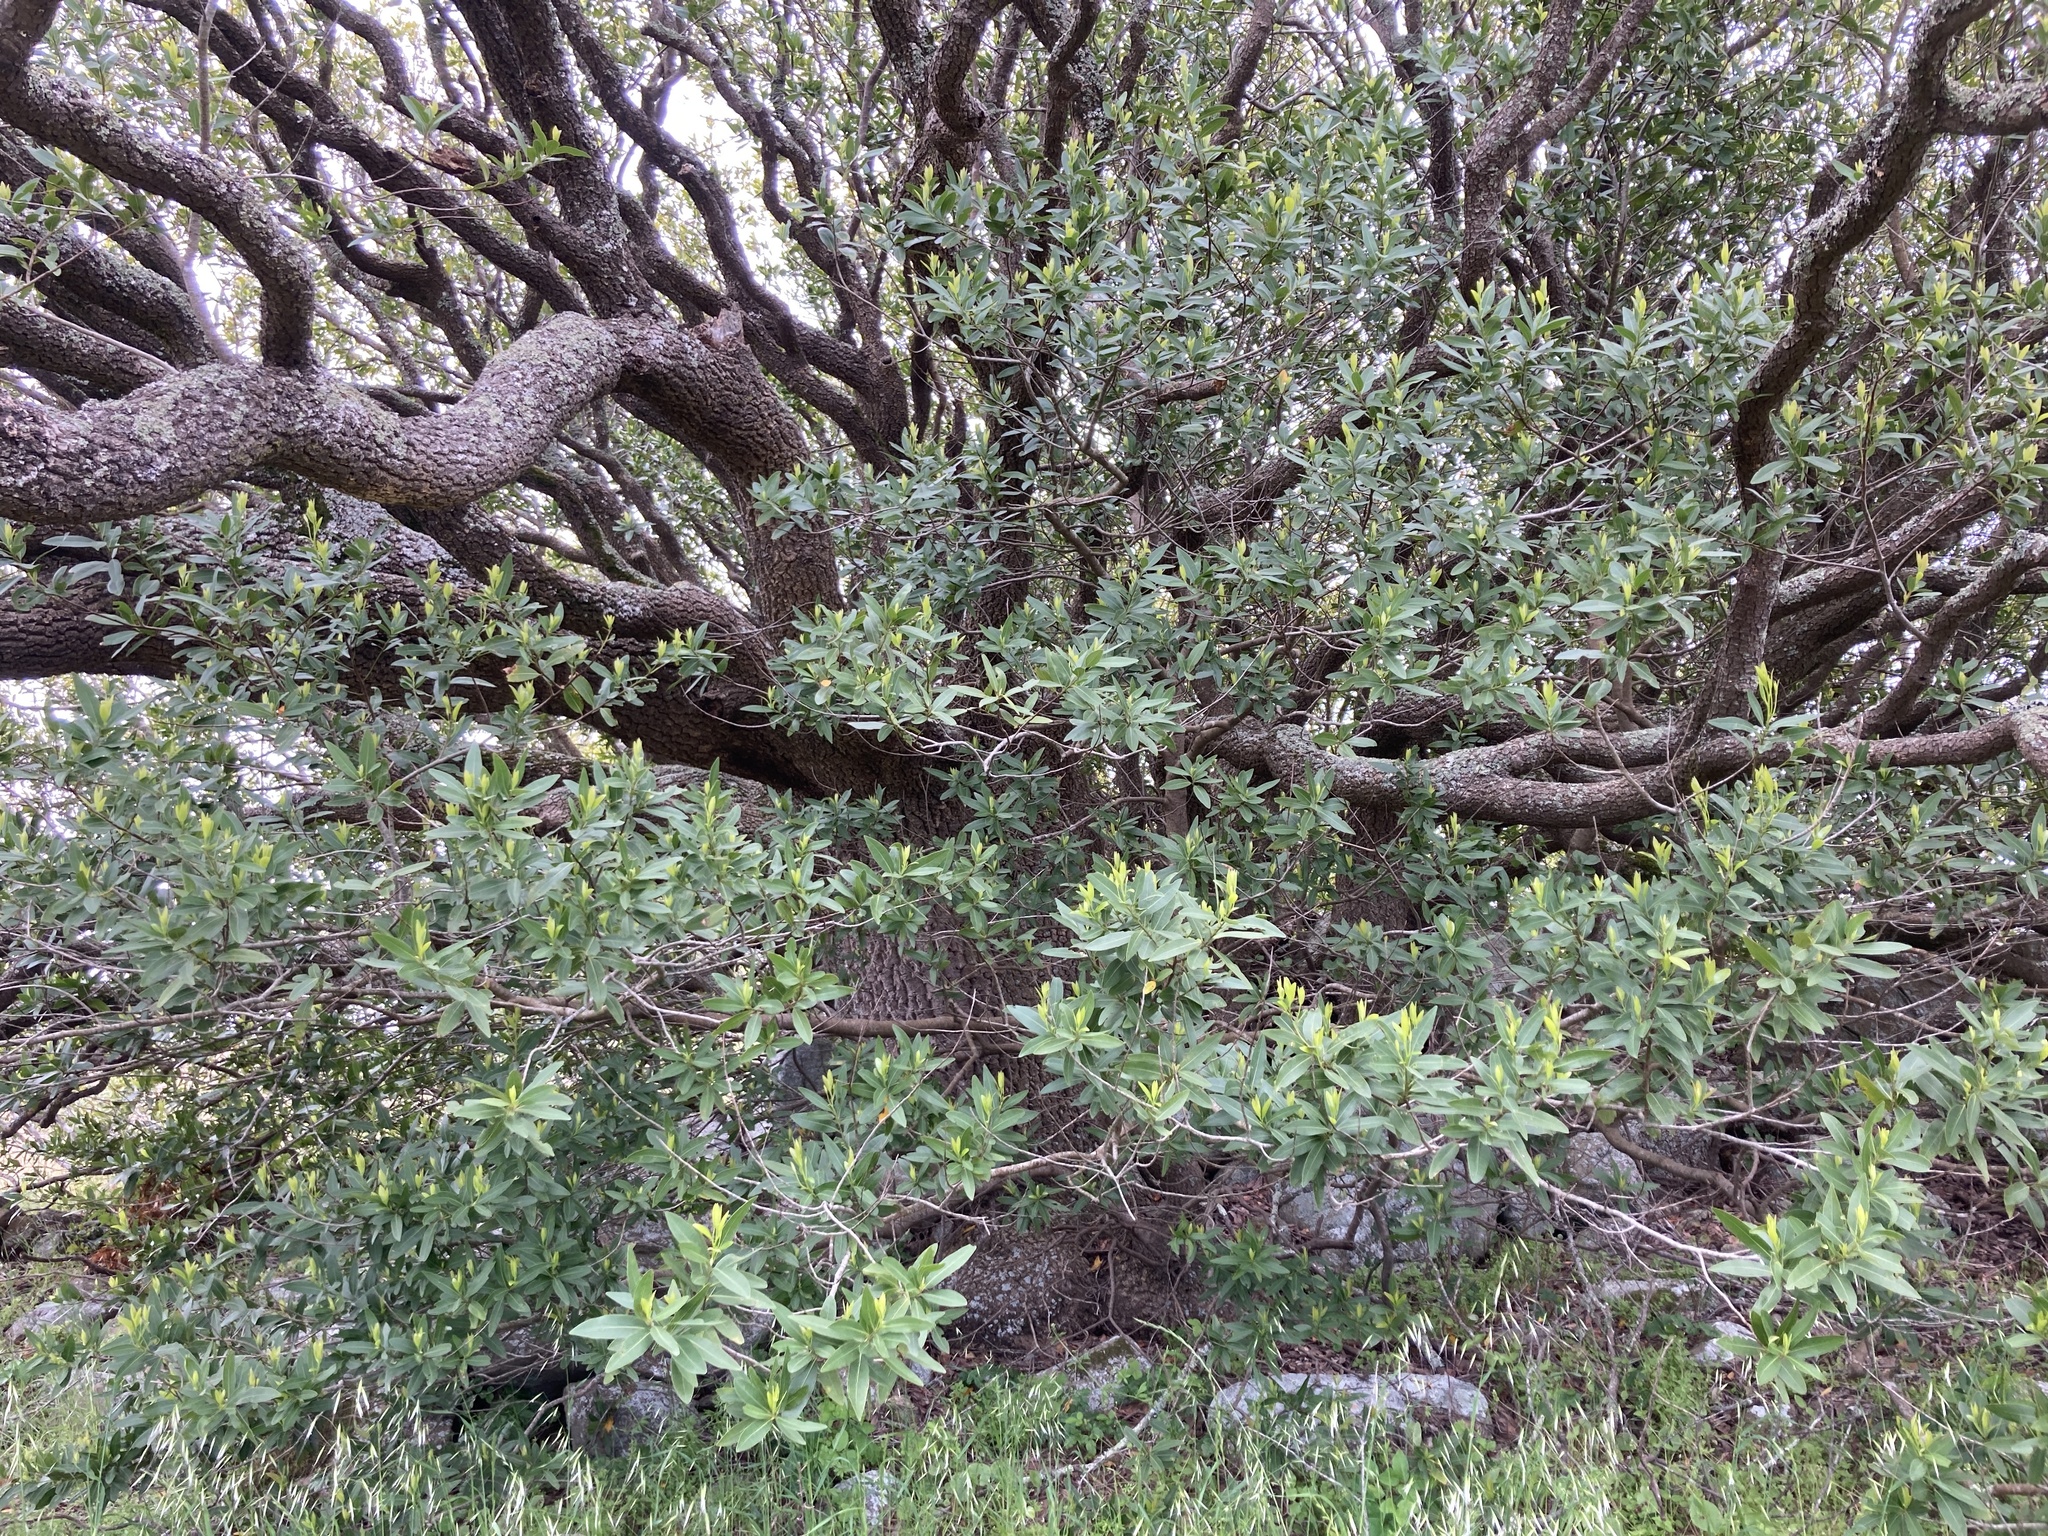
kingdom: Plantae
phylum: Tracheophyta
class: Magnoliopsida
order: Laurales
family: Lauraceae
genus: Umbellularia
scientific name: Umbellularia californica
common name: California bay
